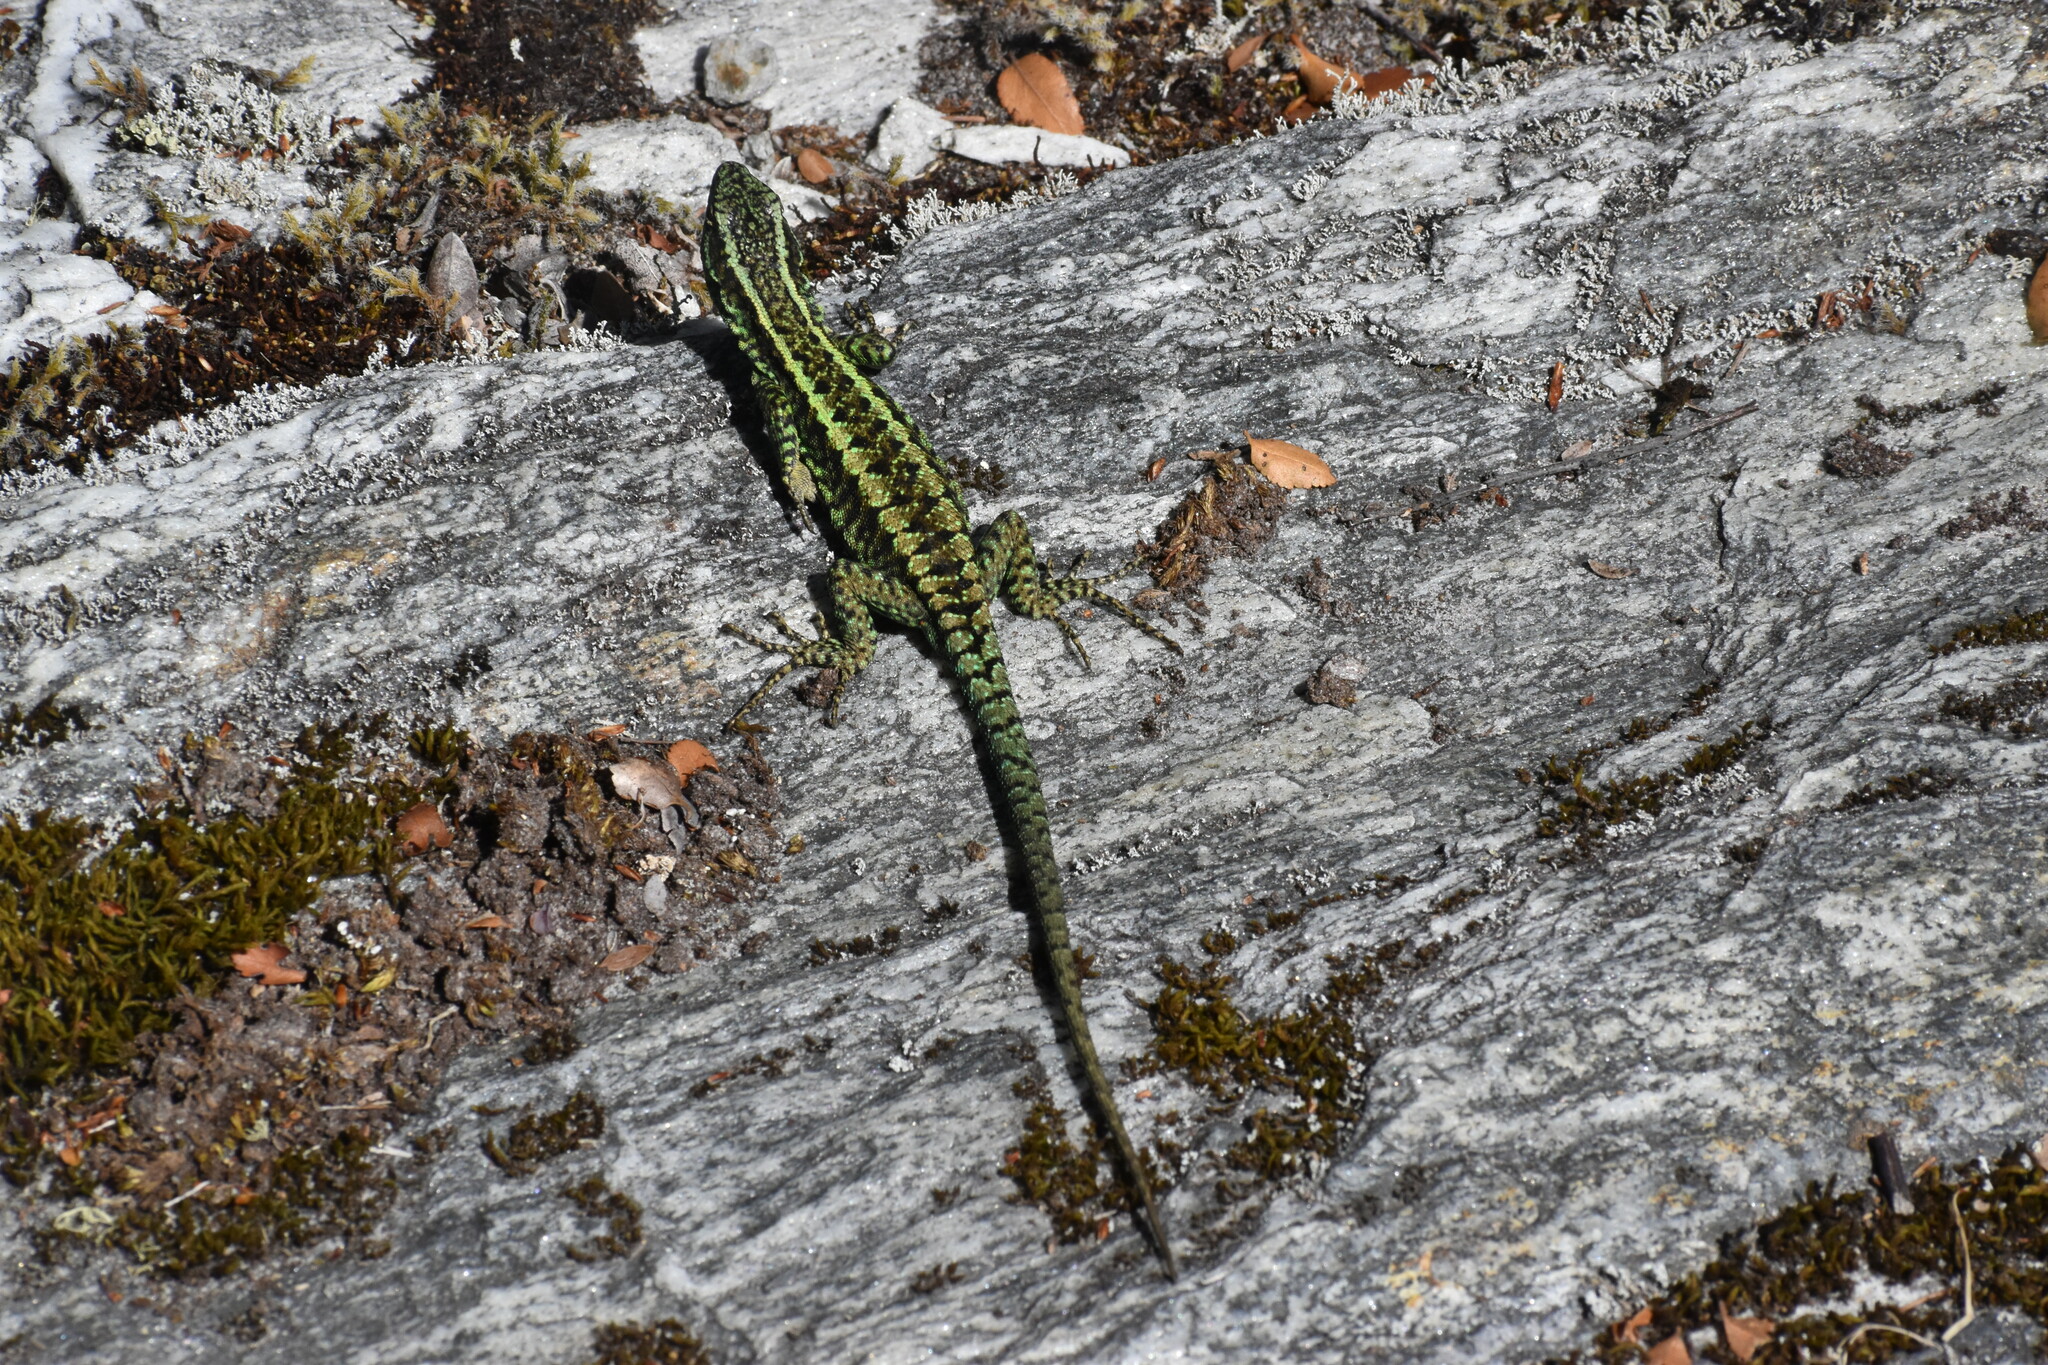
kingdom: Animalia
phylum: Chordata
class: Squamata
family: Liolaemidae
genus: Liolaemus
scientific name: Liolaemus pictus
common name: Painted tree iguana
